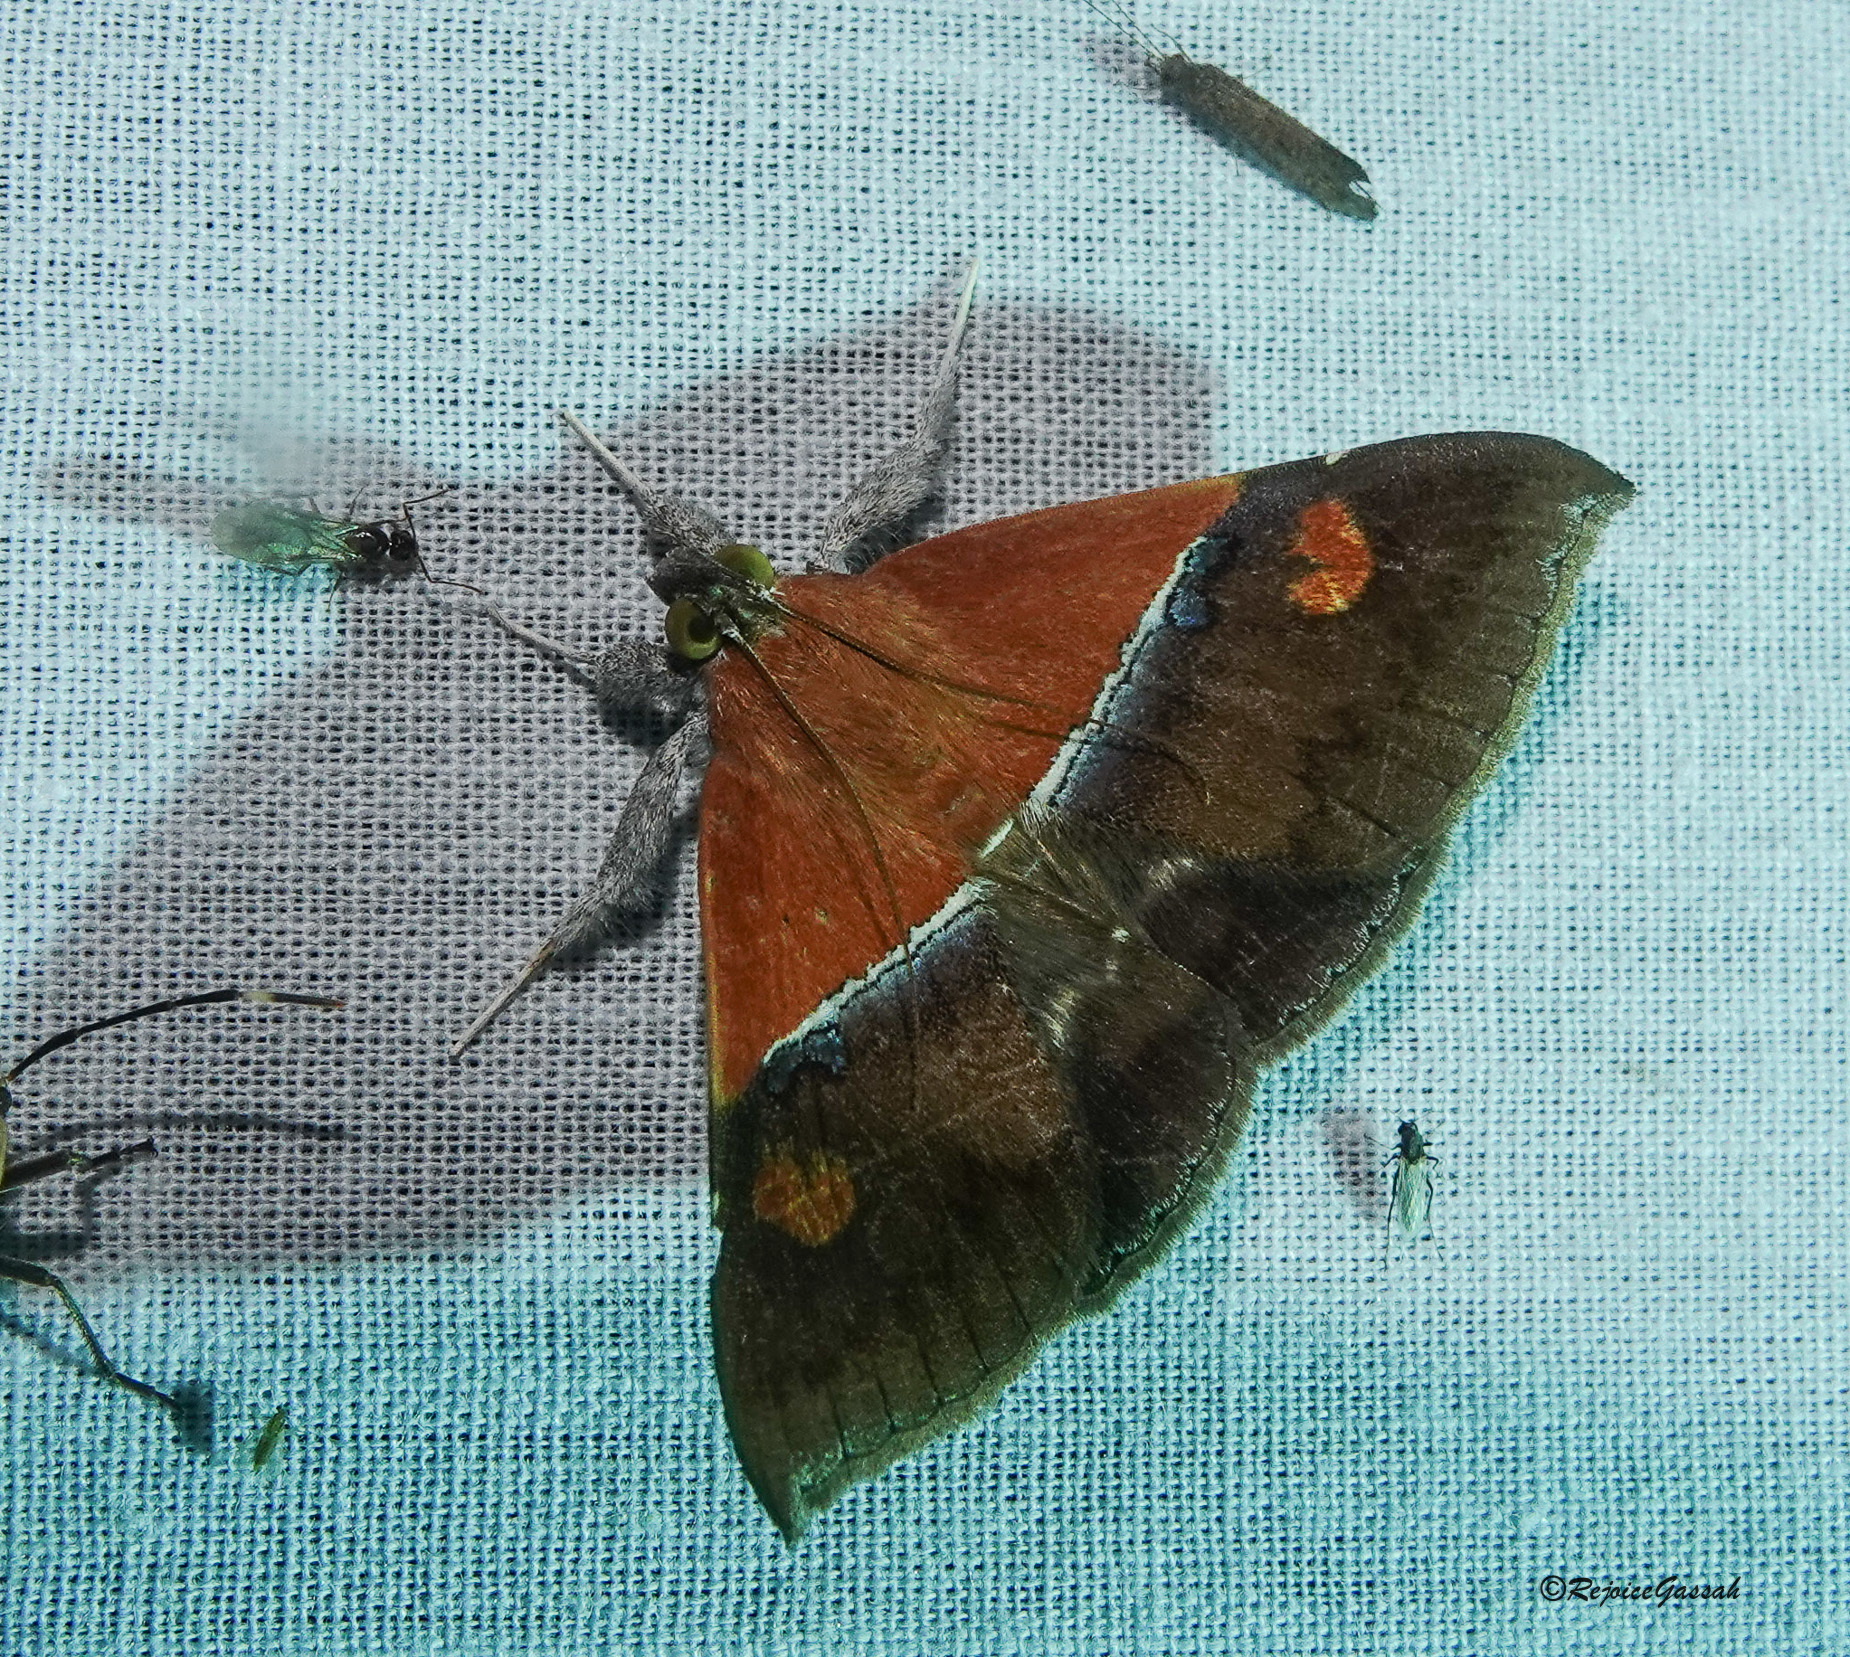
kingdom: Animalia
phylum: Arthropoda
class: Insecta
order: Lepidoptera
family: Erebidae
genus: Sympis
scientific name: Sympis rufibasis
